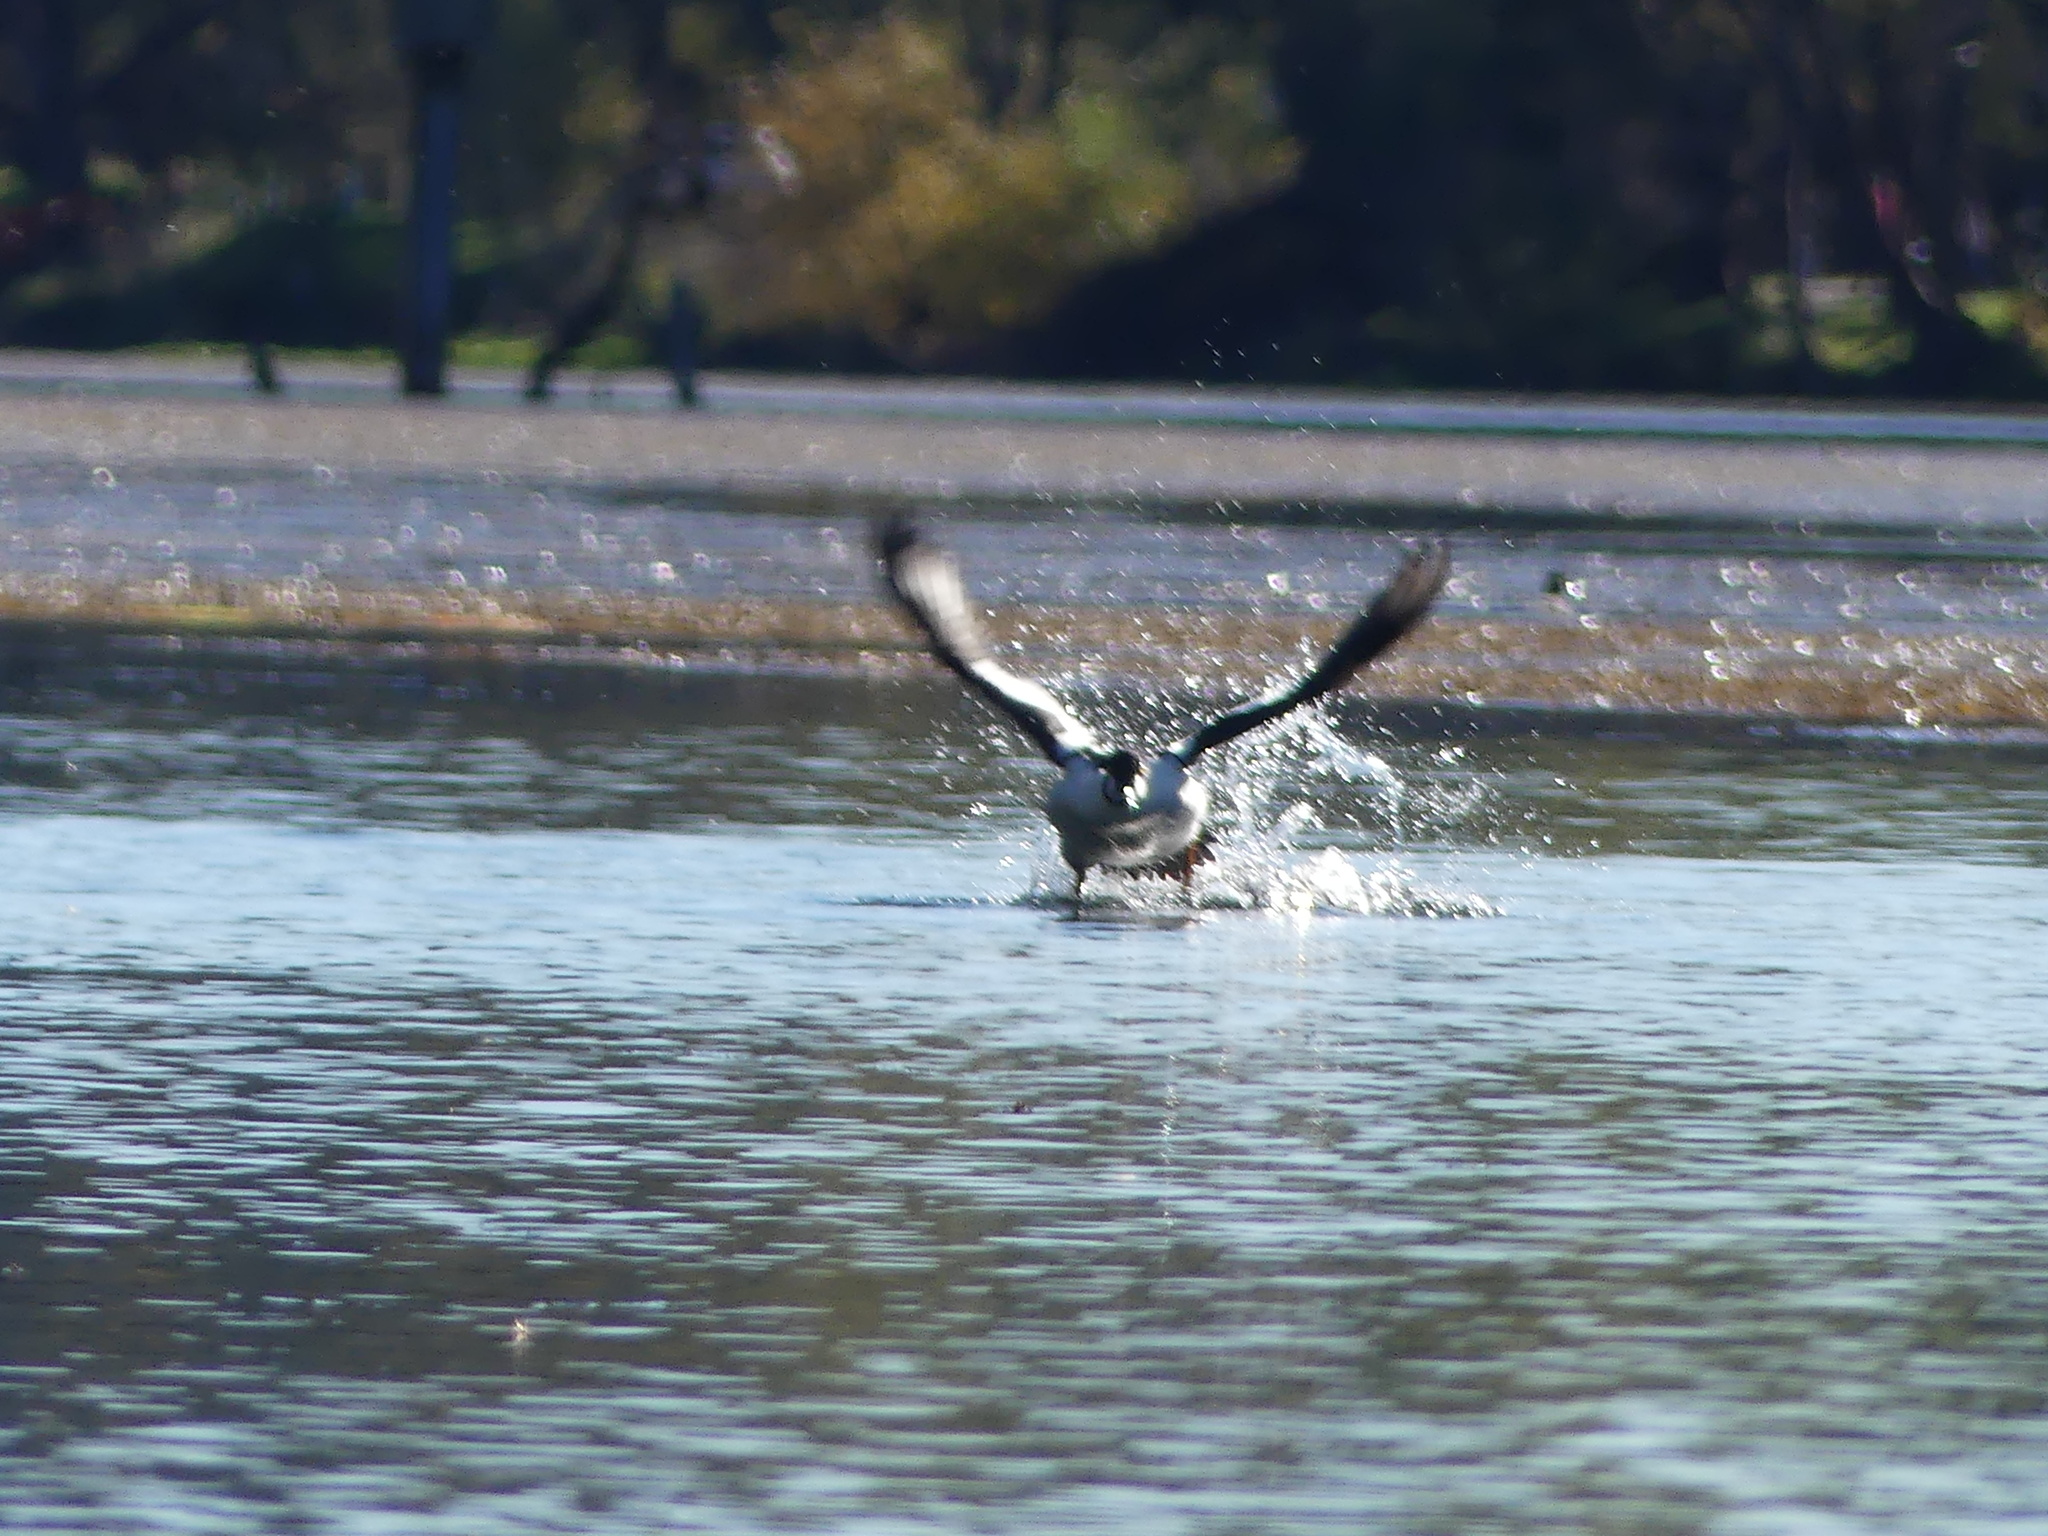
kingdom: Animalia
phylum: Chordata
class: Aves
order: Anseriformes
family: Anatidae
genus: Bucephala
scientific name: Bucephala clangula
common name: Common goldeneye
